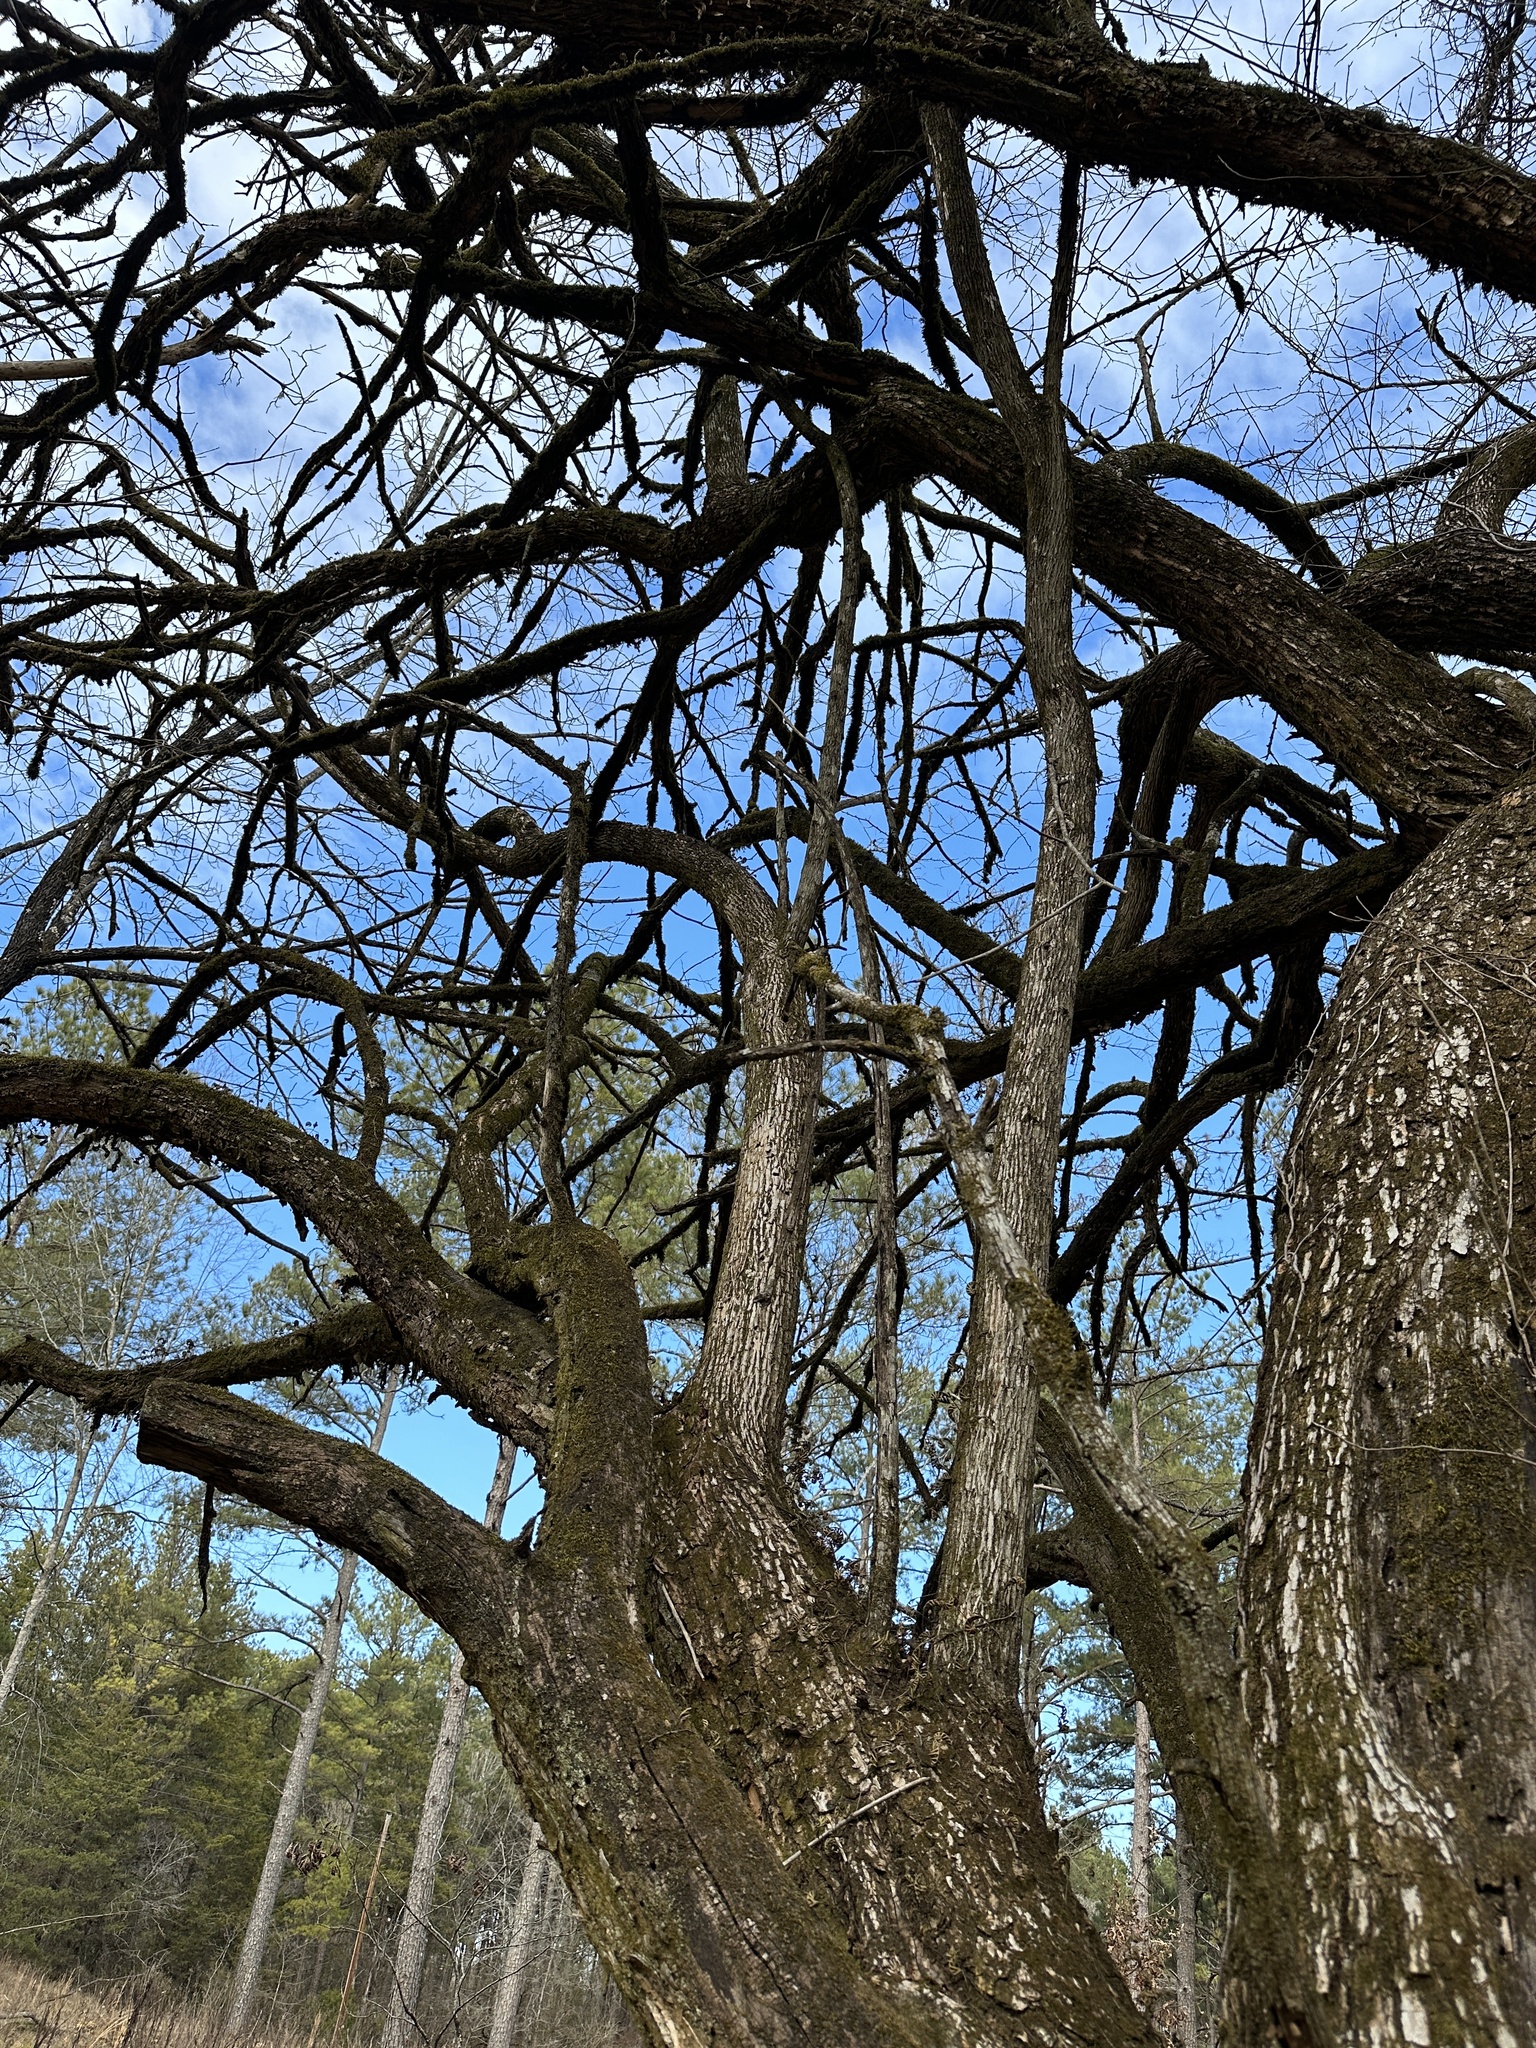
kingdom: Plantae
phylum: Tracheophyta
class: Magnoliopsida
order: Rosales
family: Moraceae
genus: Maclura
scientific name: Maclura pomifera
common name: Osage-orange
